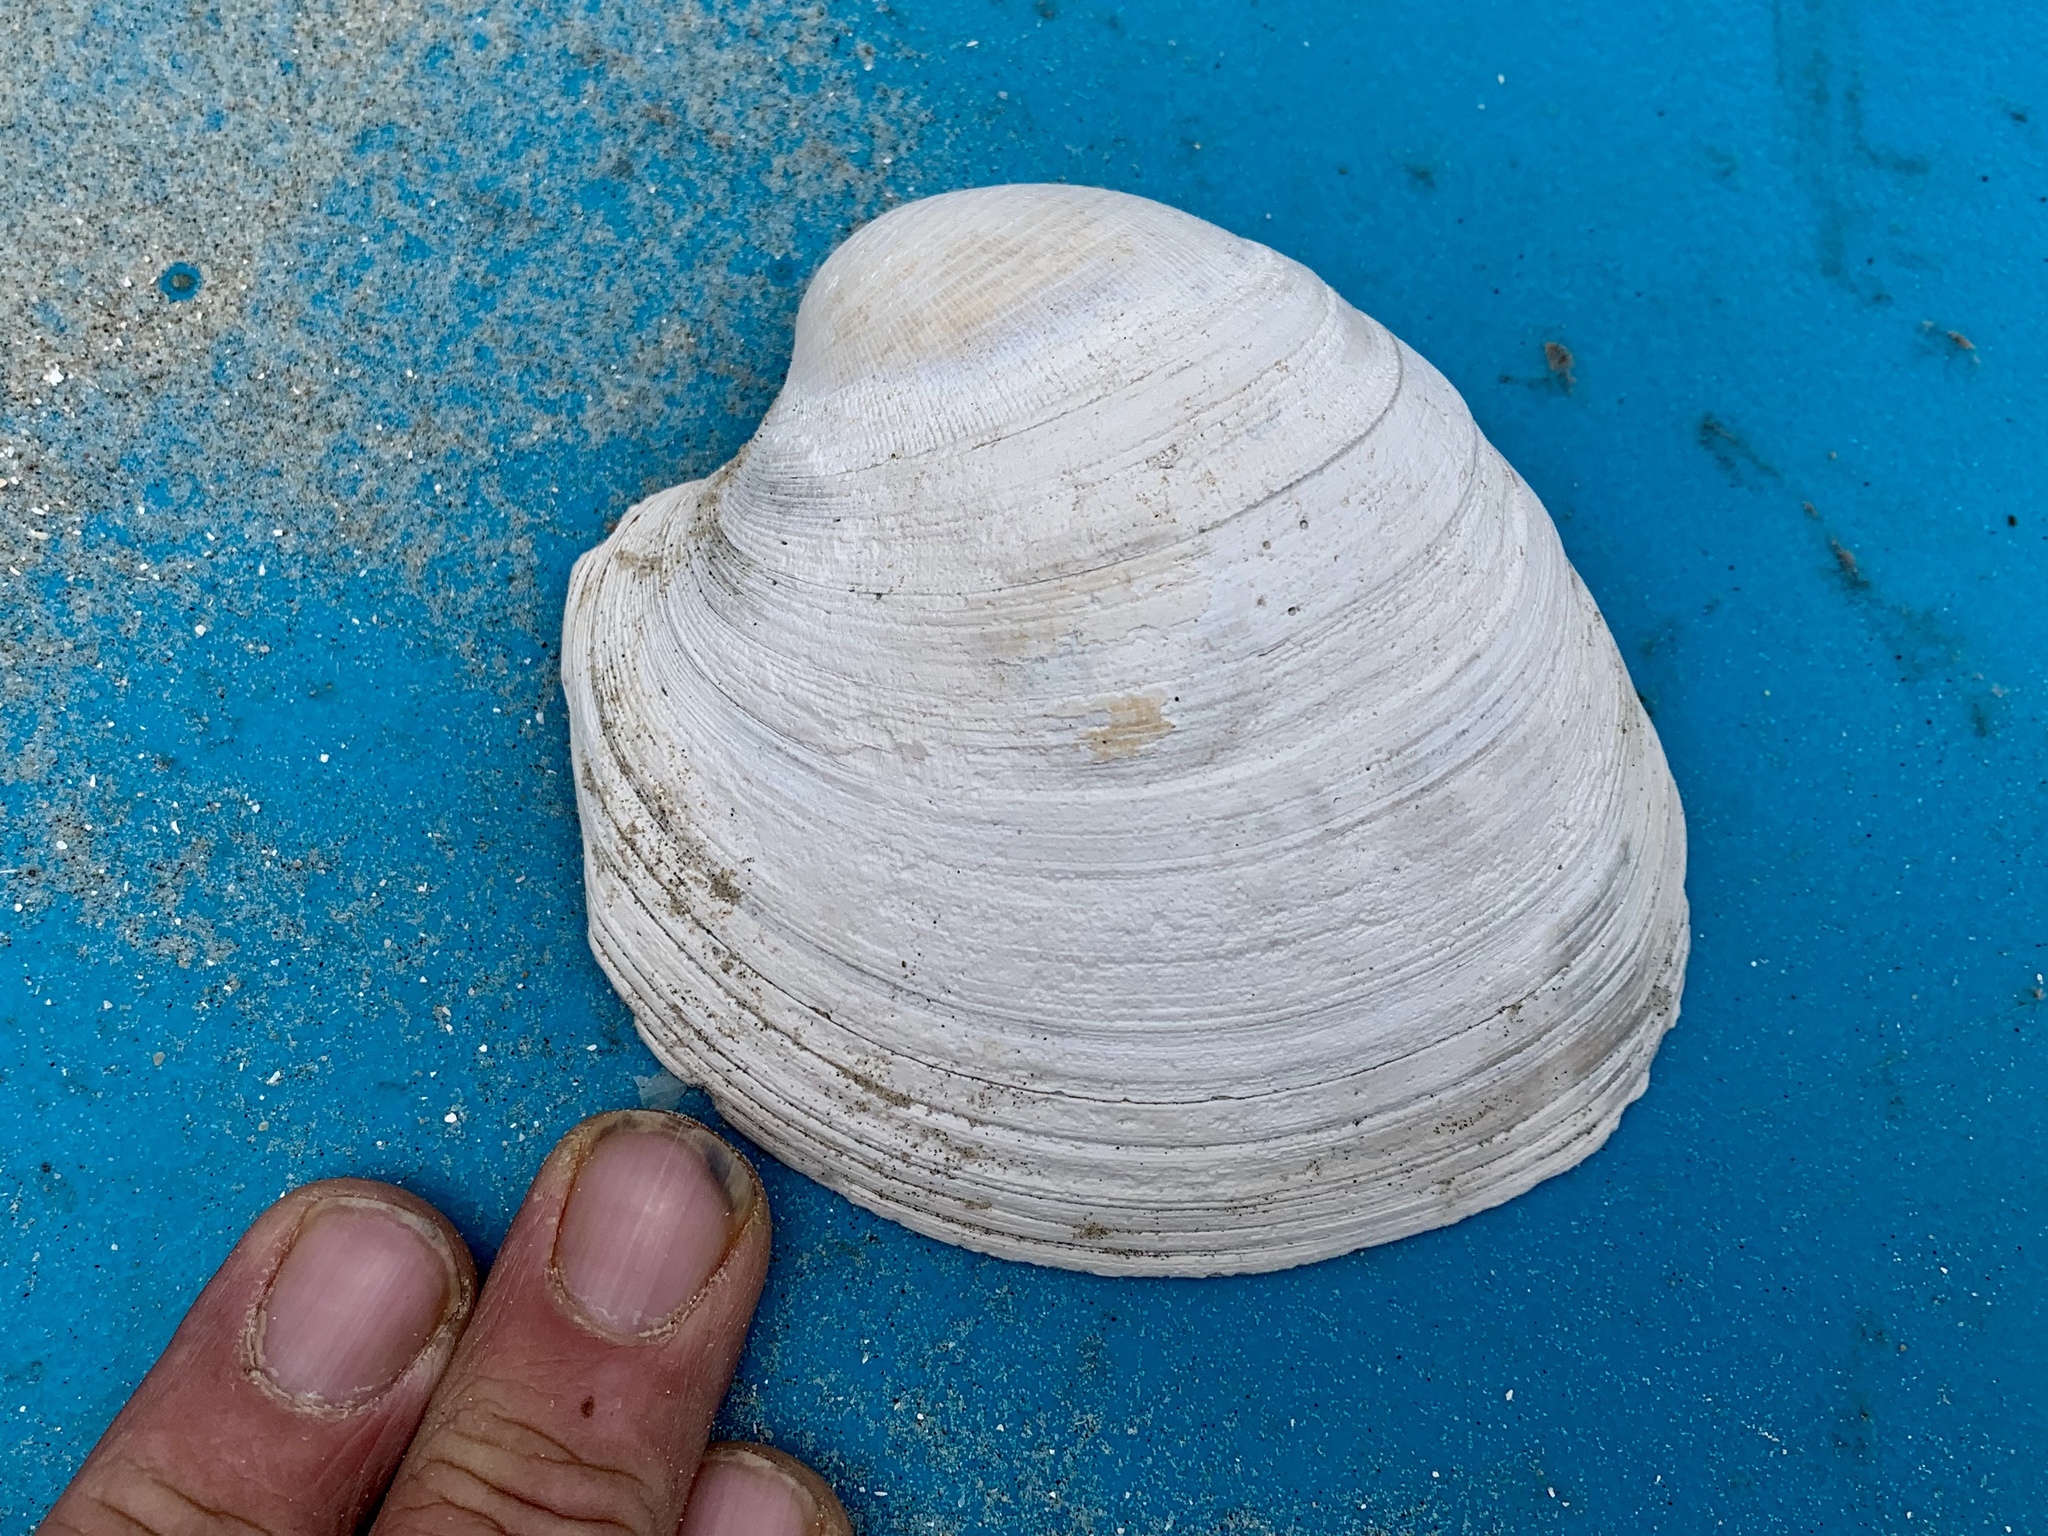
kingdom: Animalia
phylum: Mollusca
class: Bivalvia
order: Venerida
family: Veneridae
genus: Mercenaria
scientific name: Mercenaria campechiensis
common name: Südliche quahog-muschel
